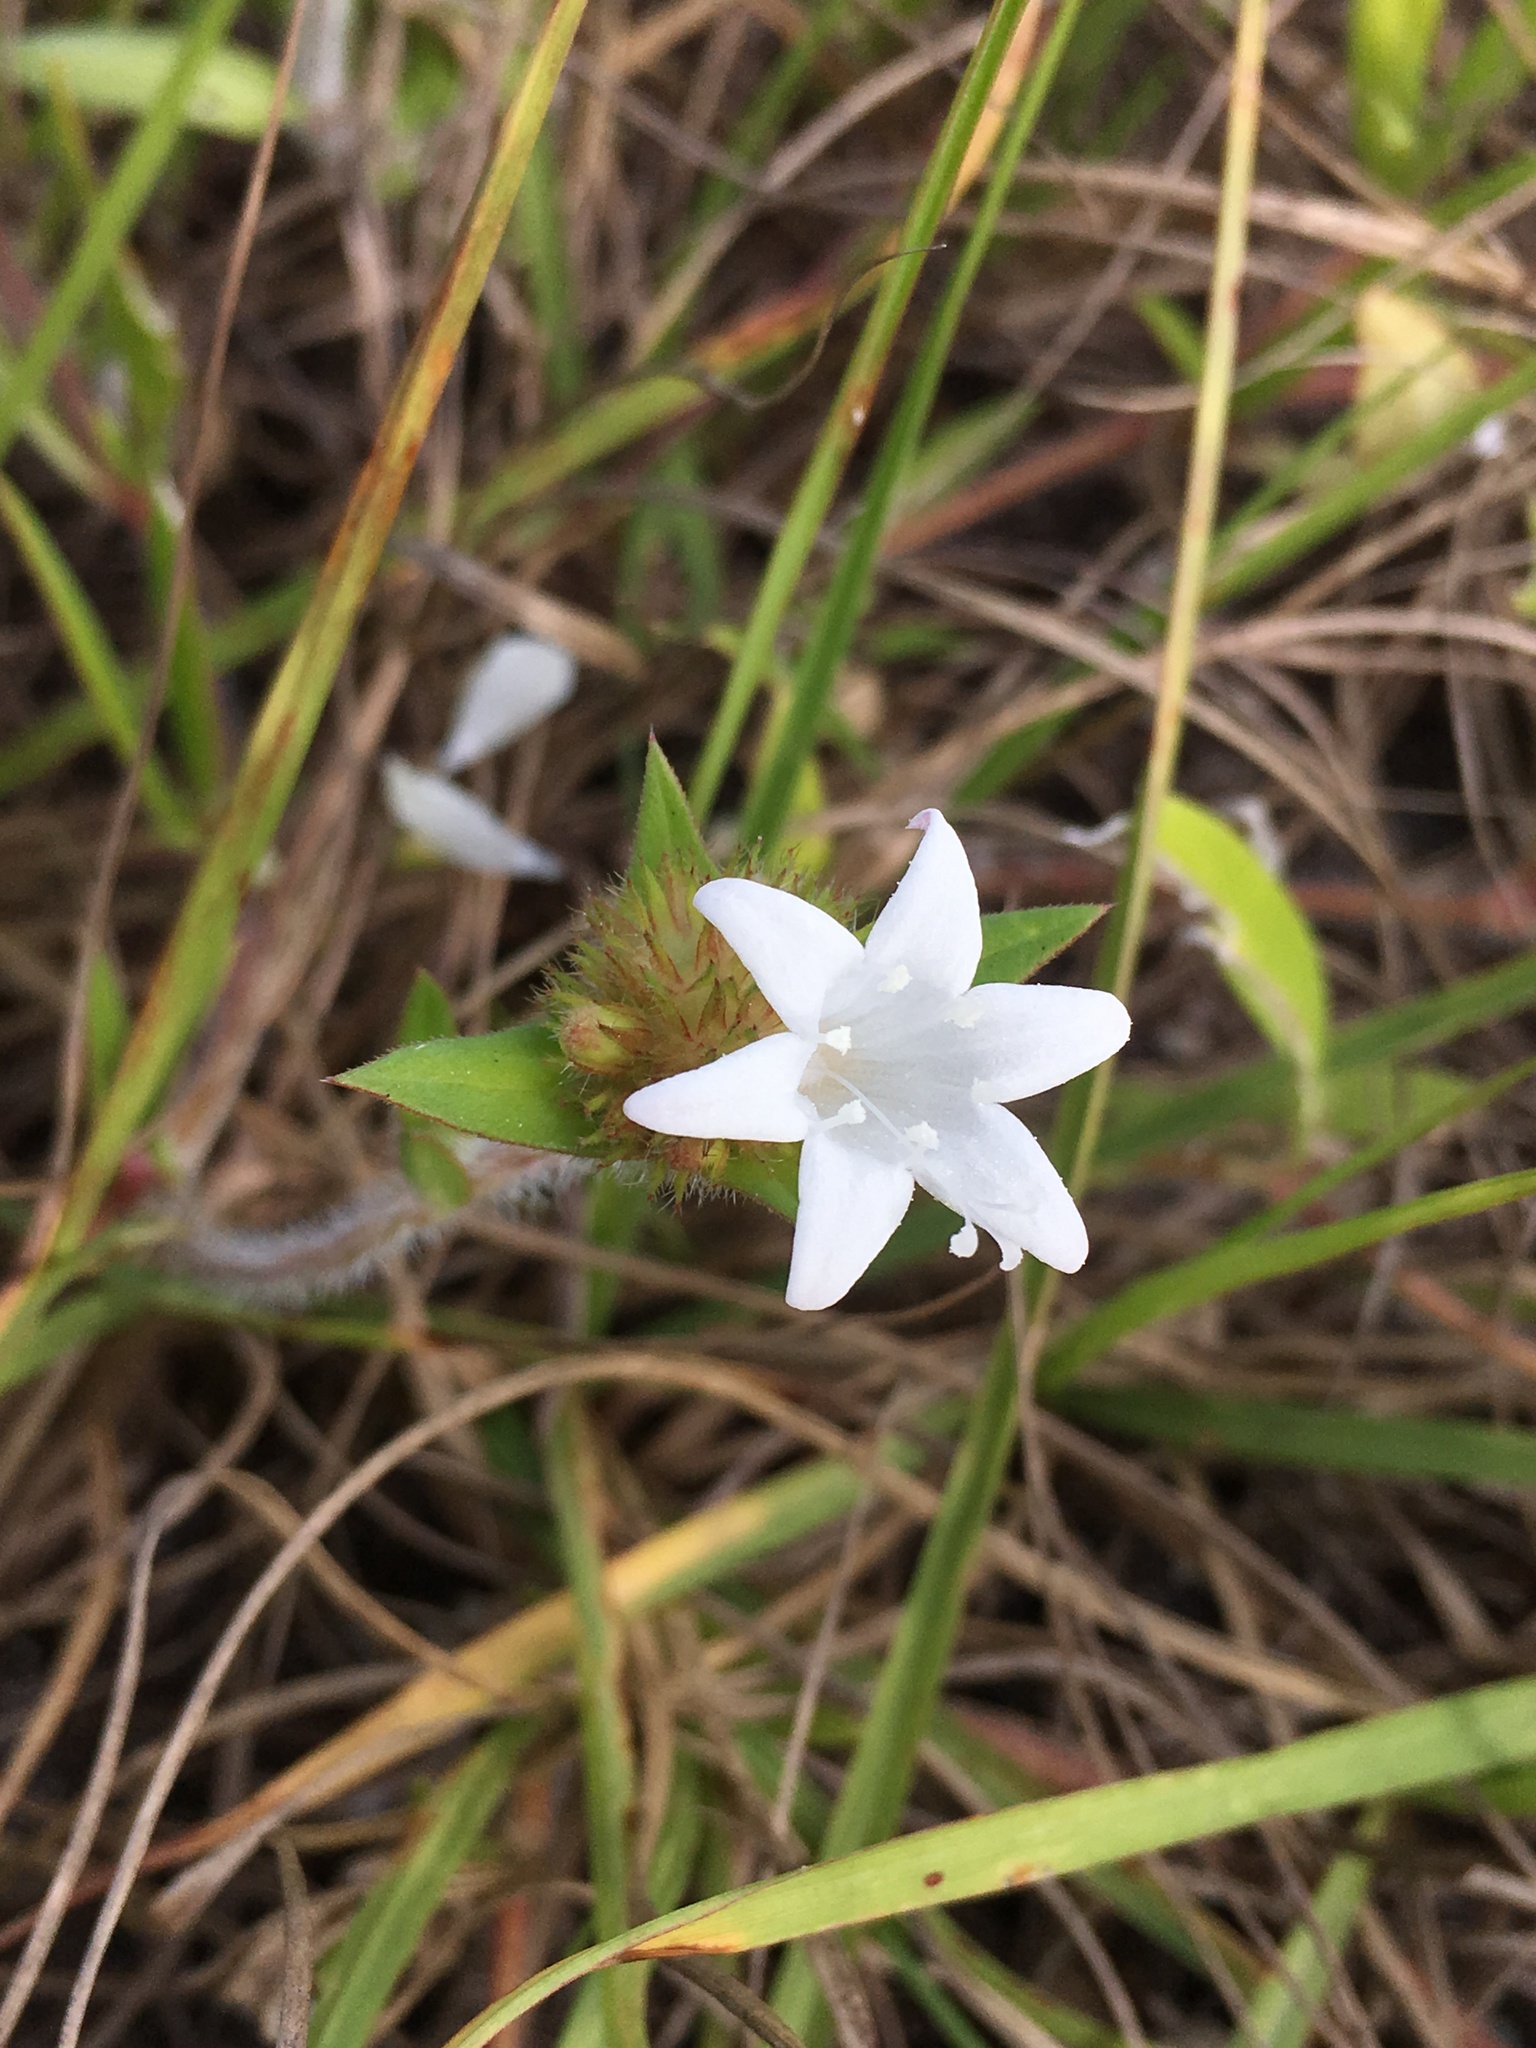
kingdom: Plantae
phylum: Tracheophyta
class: Magnoliopsida
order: Gentianales
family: Rubiaceae
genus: Richardia
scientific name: Richardia grandiflora
